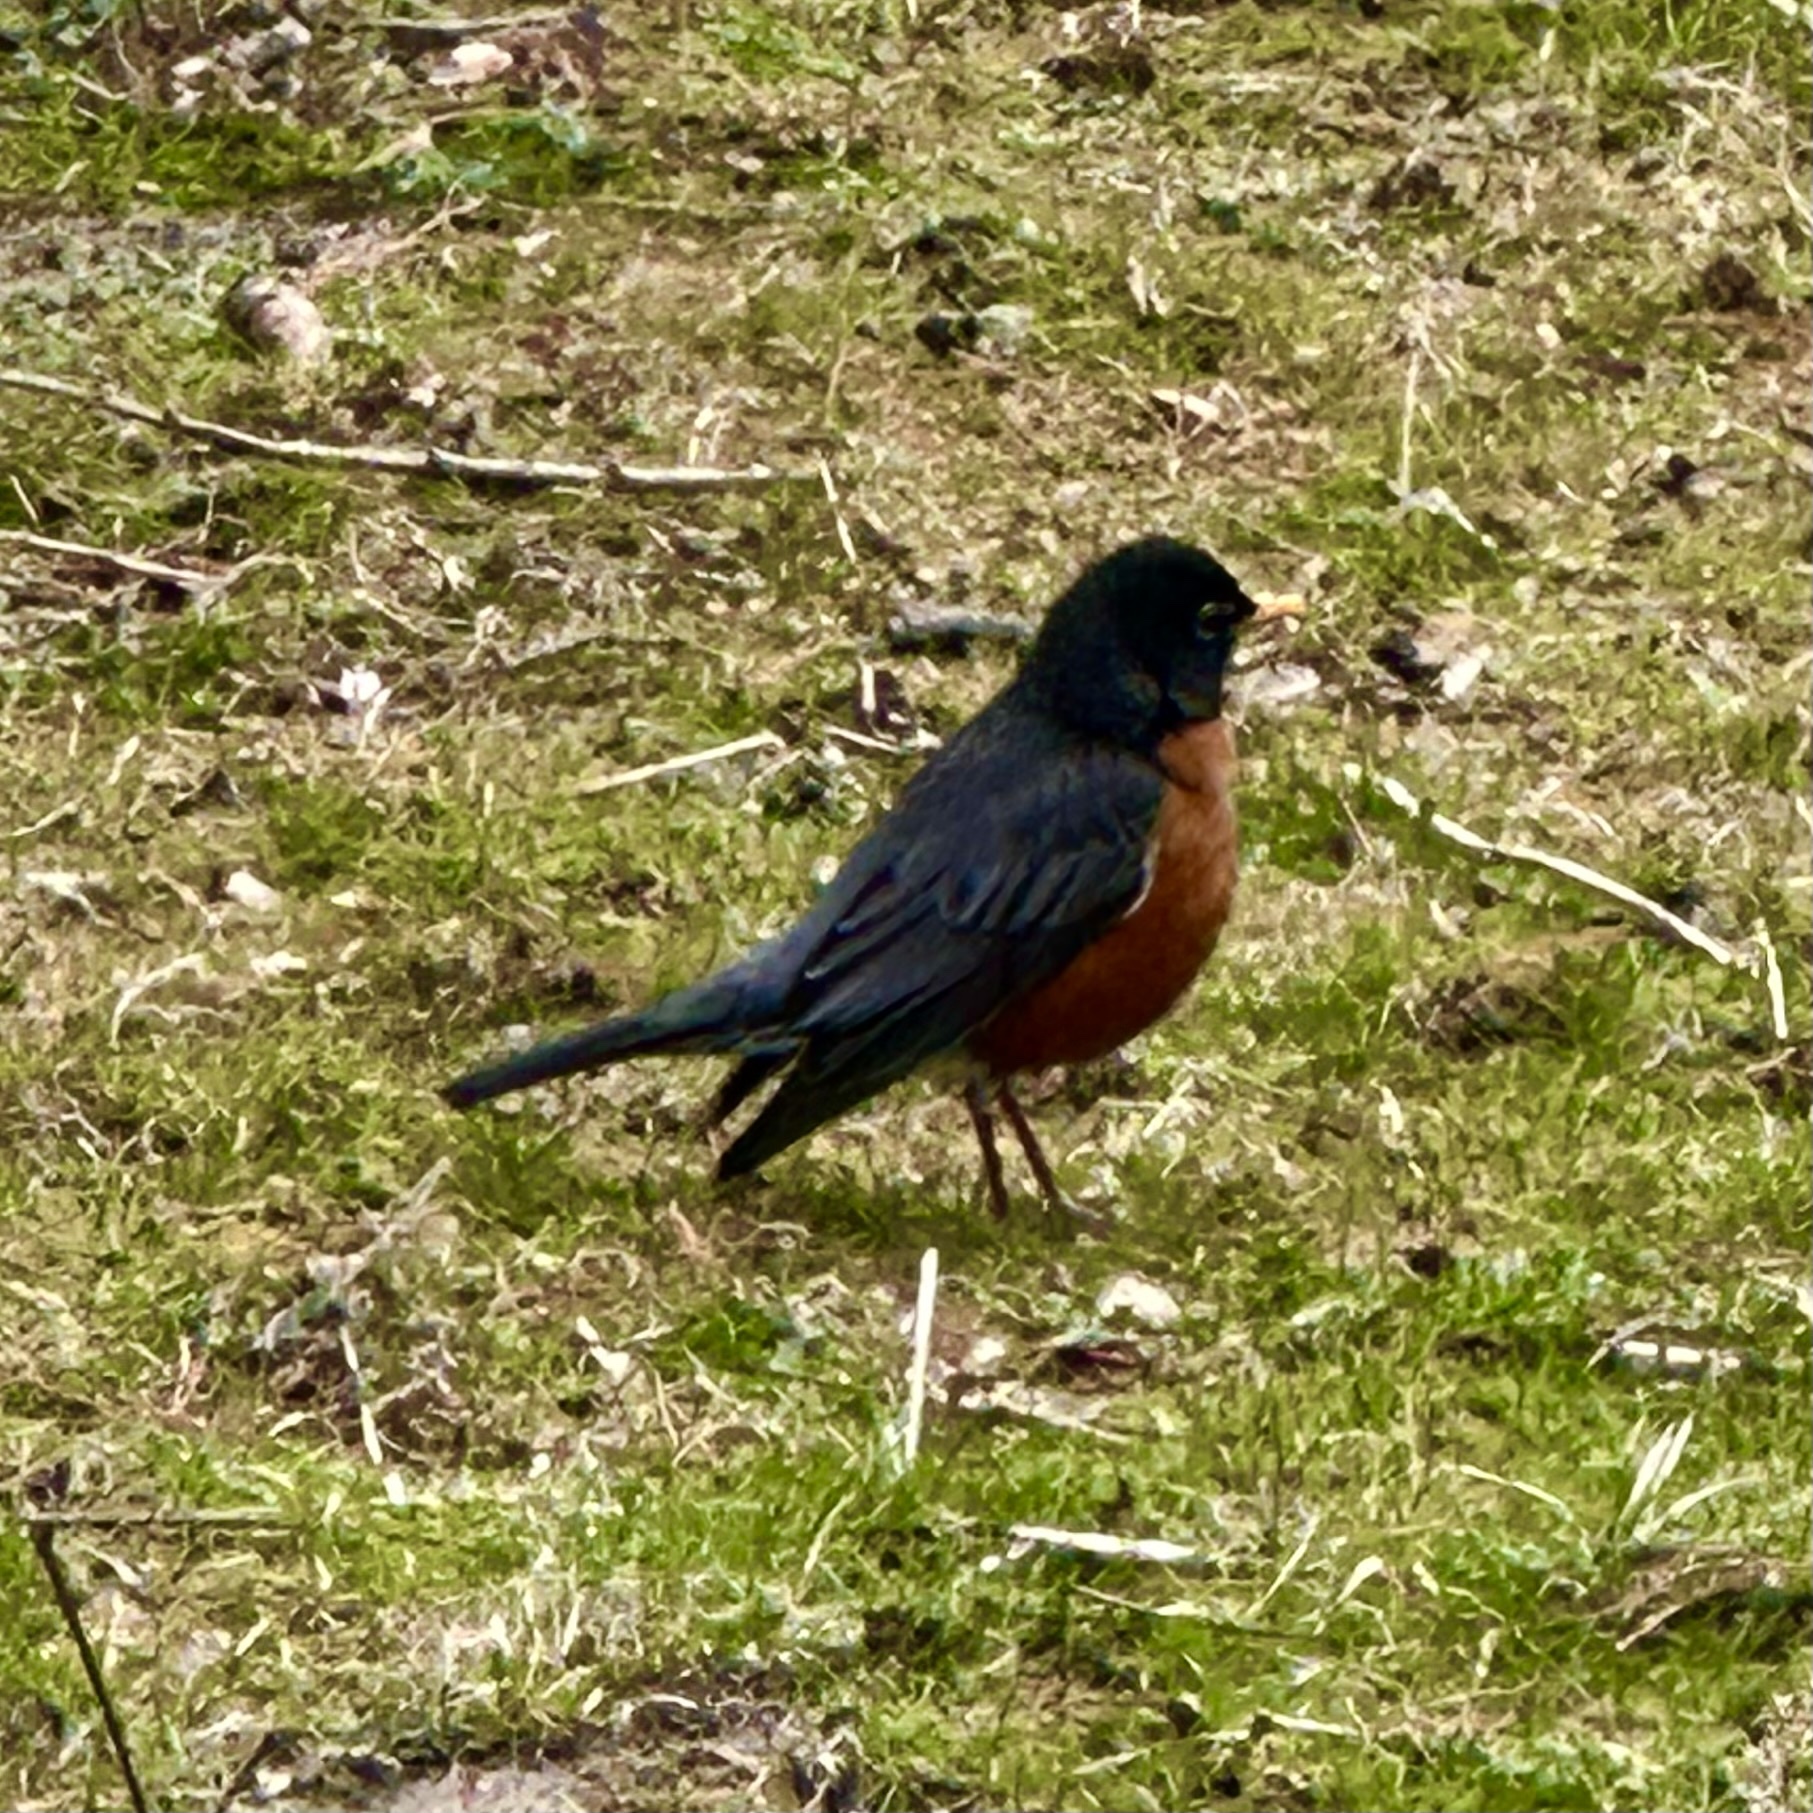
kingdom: Animalia
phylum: Chordata
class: Aves
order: Passeriformes
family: Turdidae
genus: Turdus
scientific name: Turdus migratorius
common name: American robin
